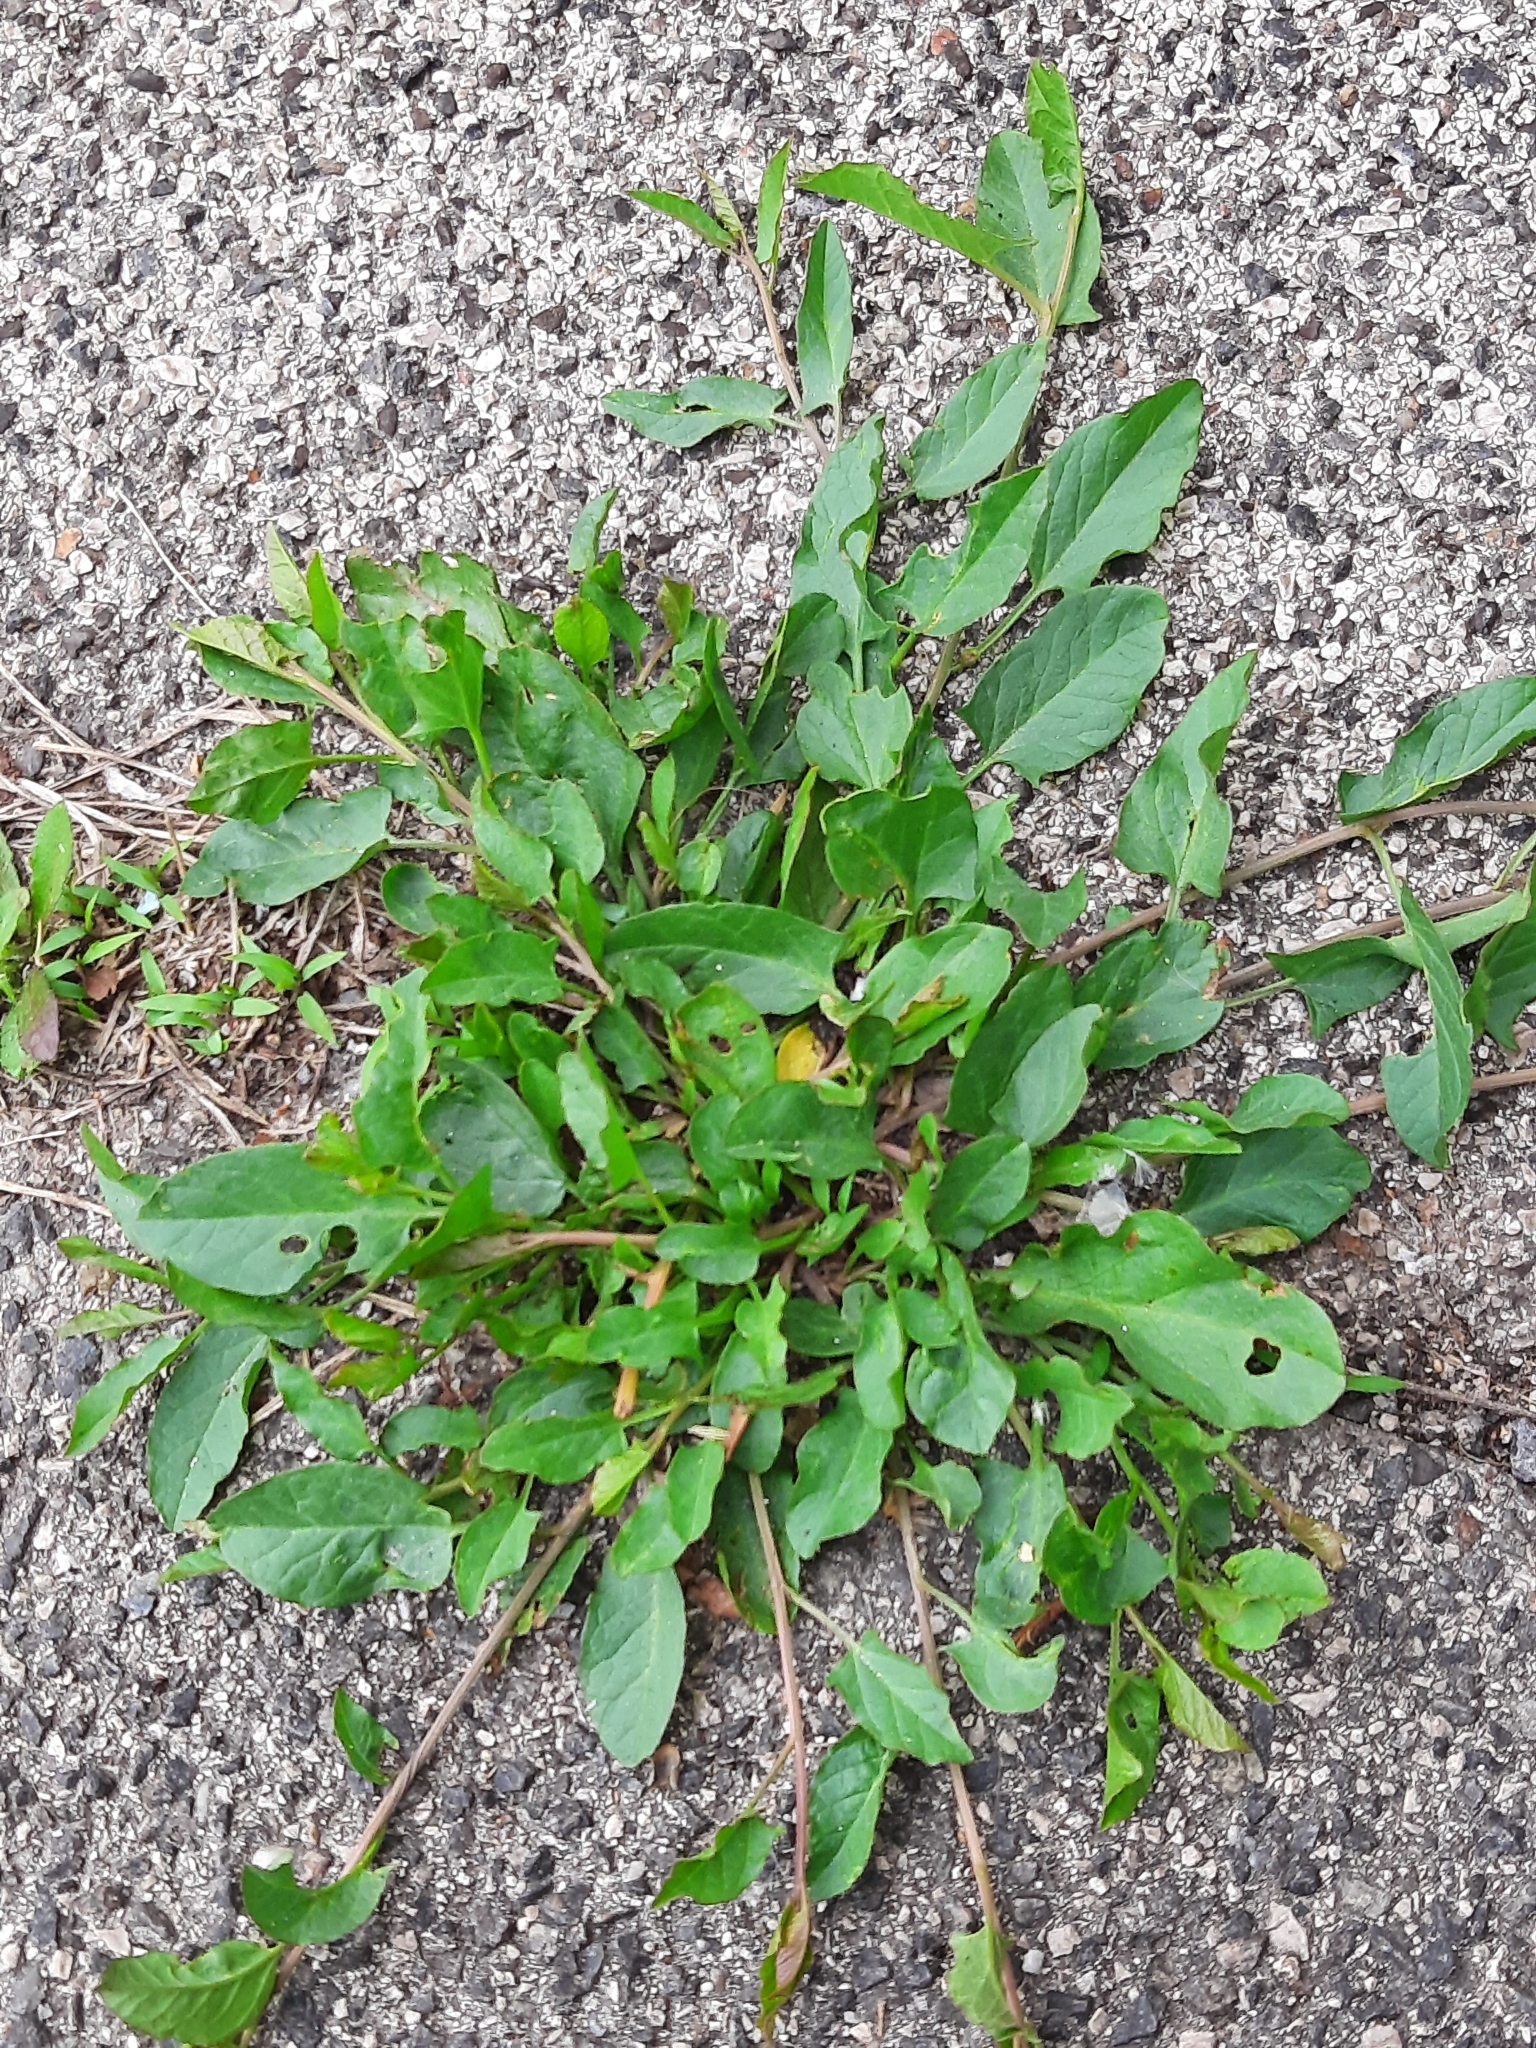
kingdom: Plantae
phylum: Tracheophyta
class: Magnoliopsida
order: Solanales
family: Convolvulaceae
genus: Convolvulus
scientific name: Convolvulus arvensis
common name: Field bindweed
